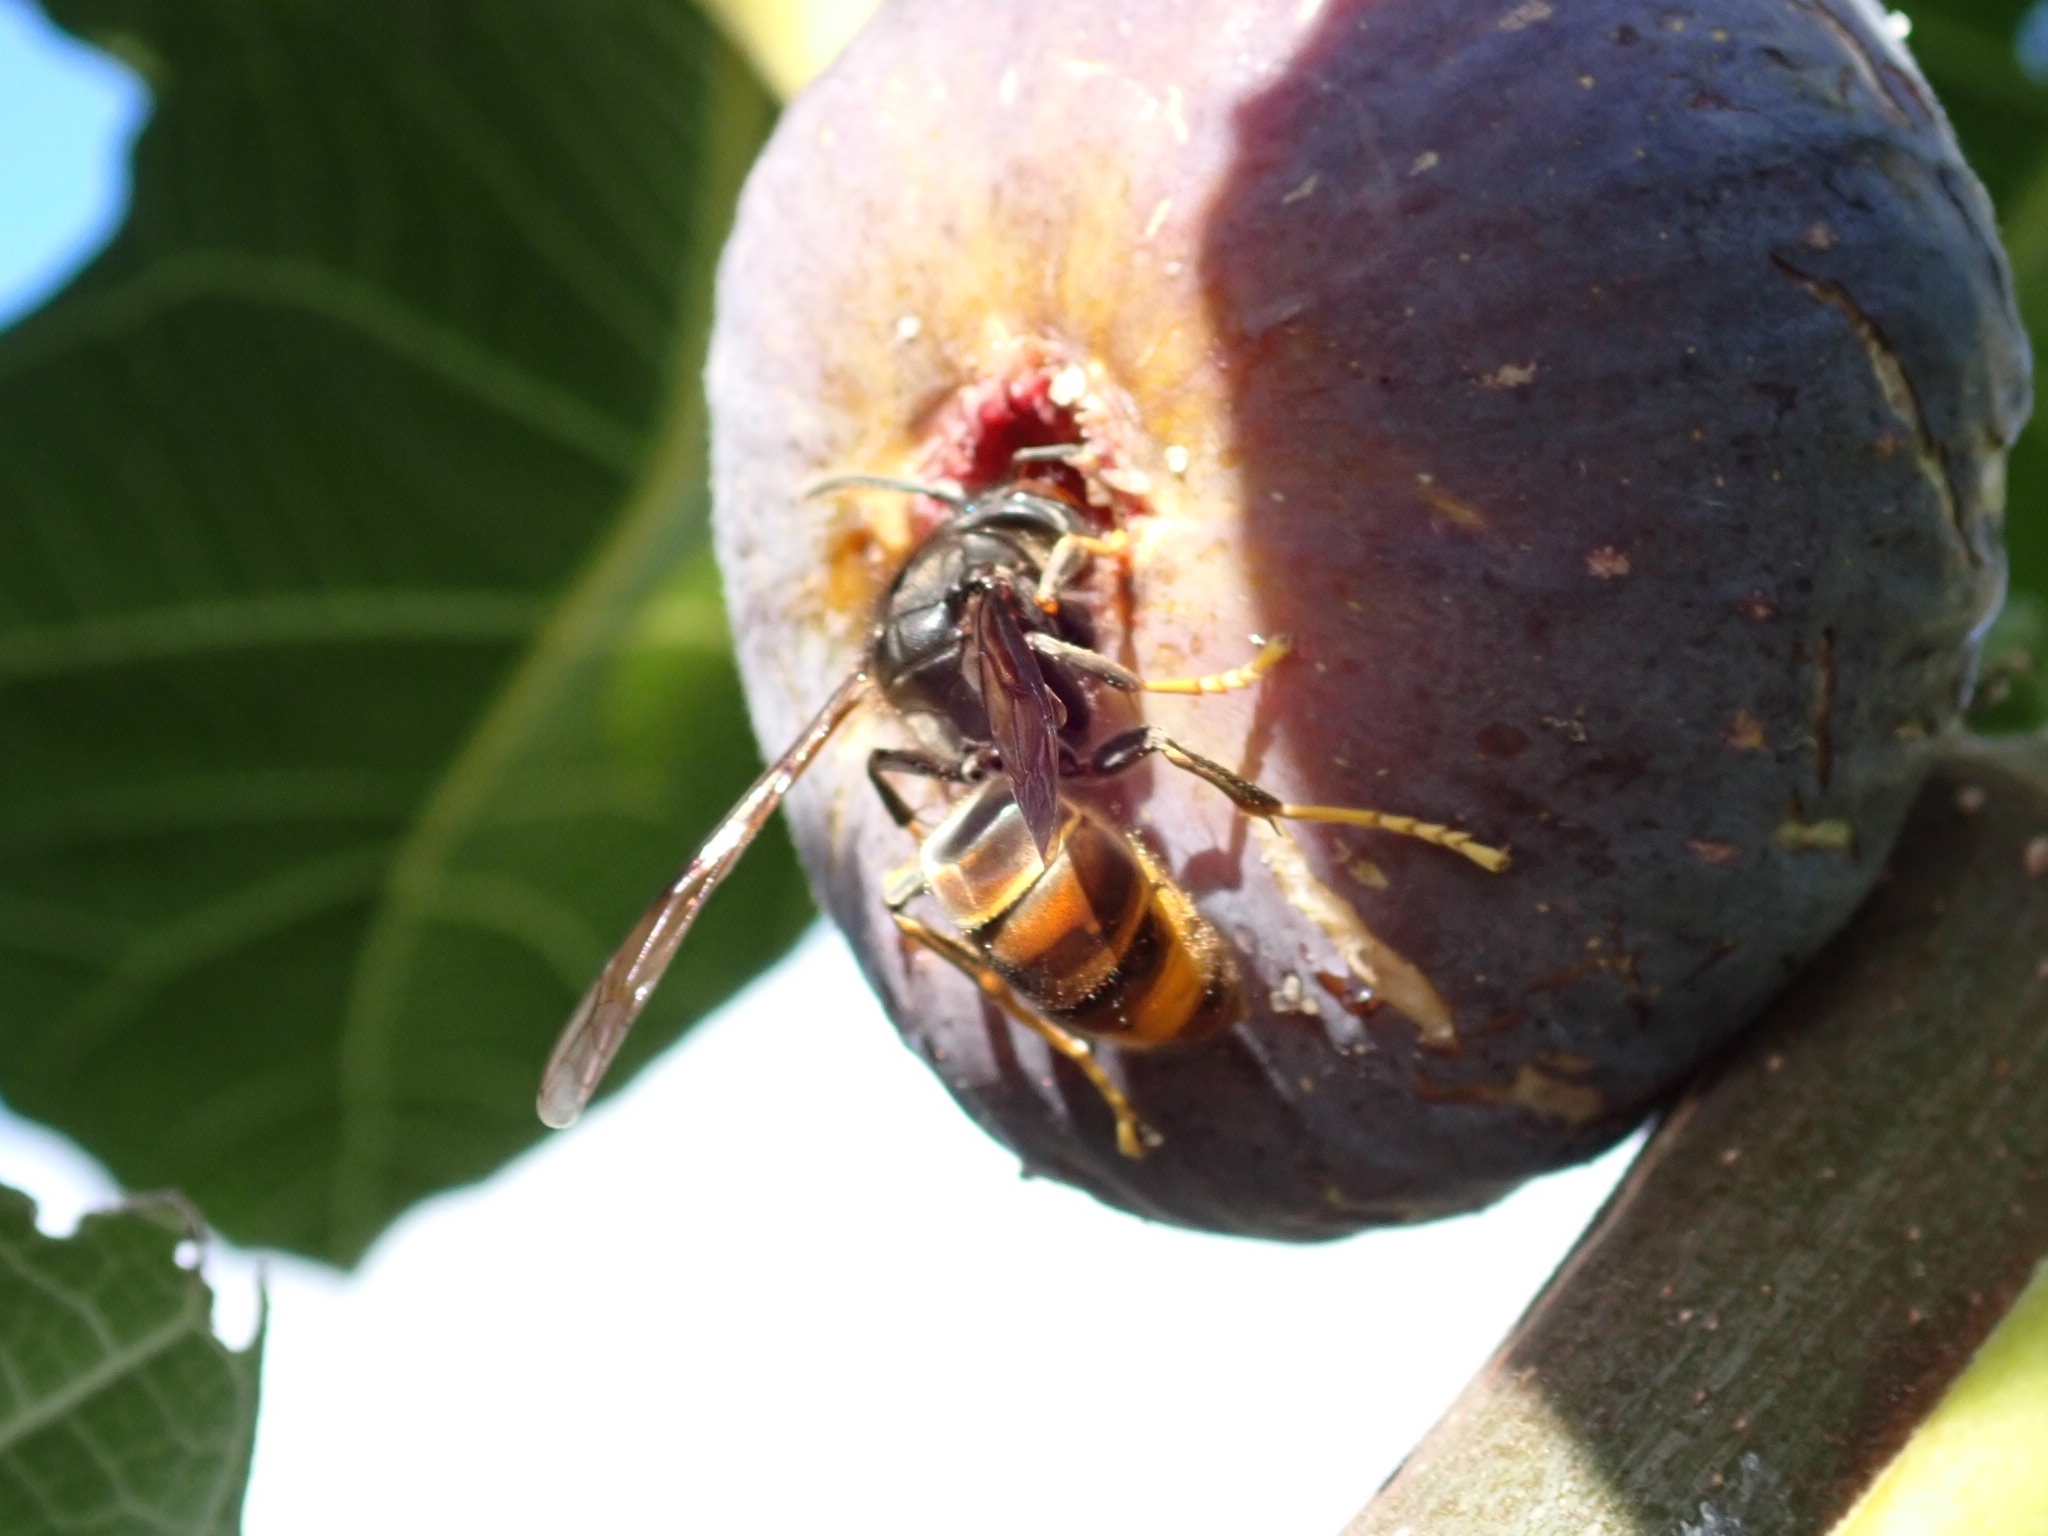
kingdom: Animalia
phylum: Arthropoda
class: Insecta
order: Hymenoptera
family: Vespidae
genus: Vespa
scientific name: Vespa velutina
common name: Asian hornet
